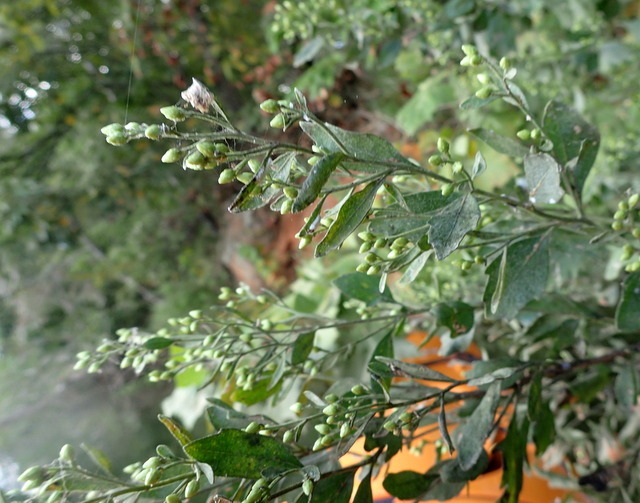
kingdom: Plantae
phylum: Tracheophyta
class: Magnoliopsida
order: Asterales
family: Asteraceae
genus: Baccharis
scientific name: Baccharis halimifolia
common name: Eastern baccharis
